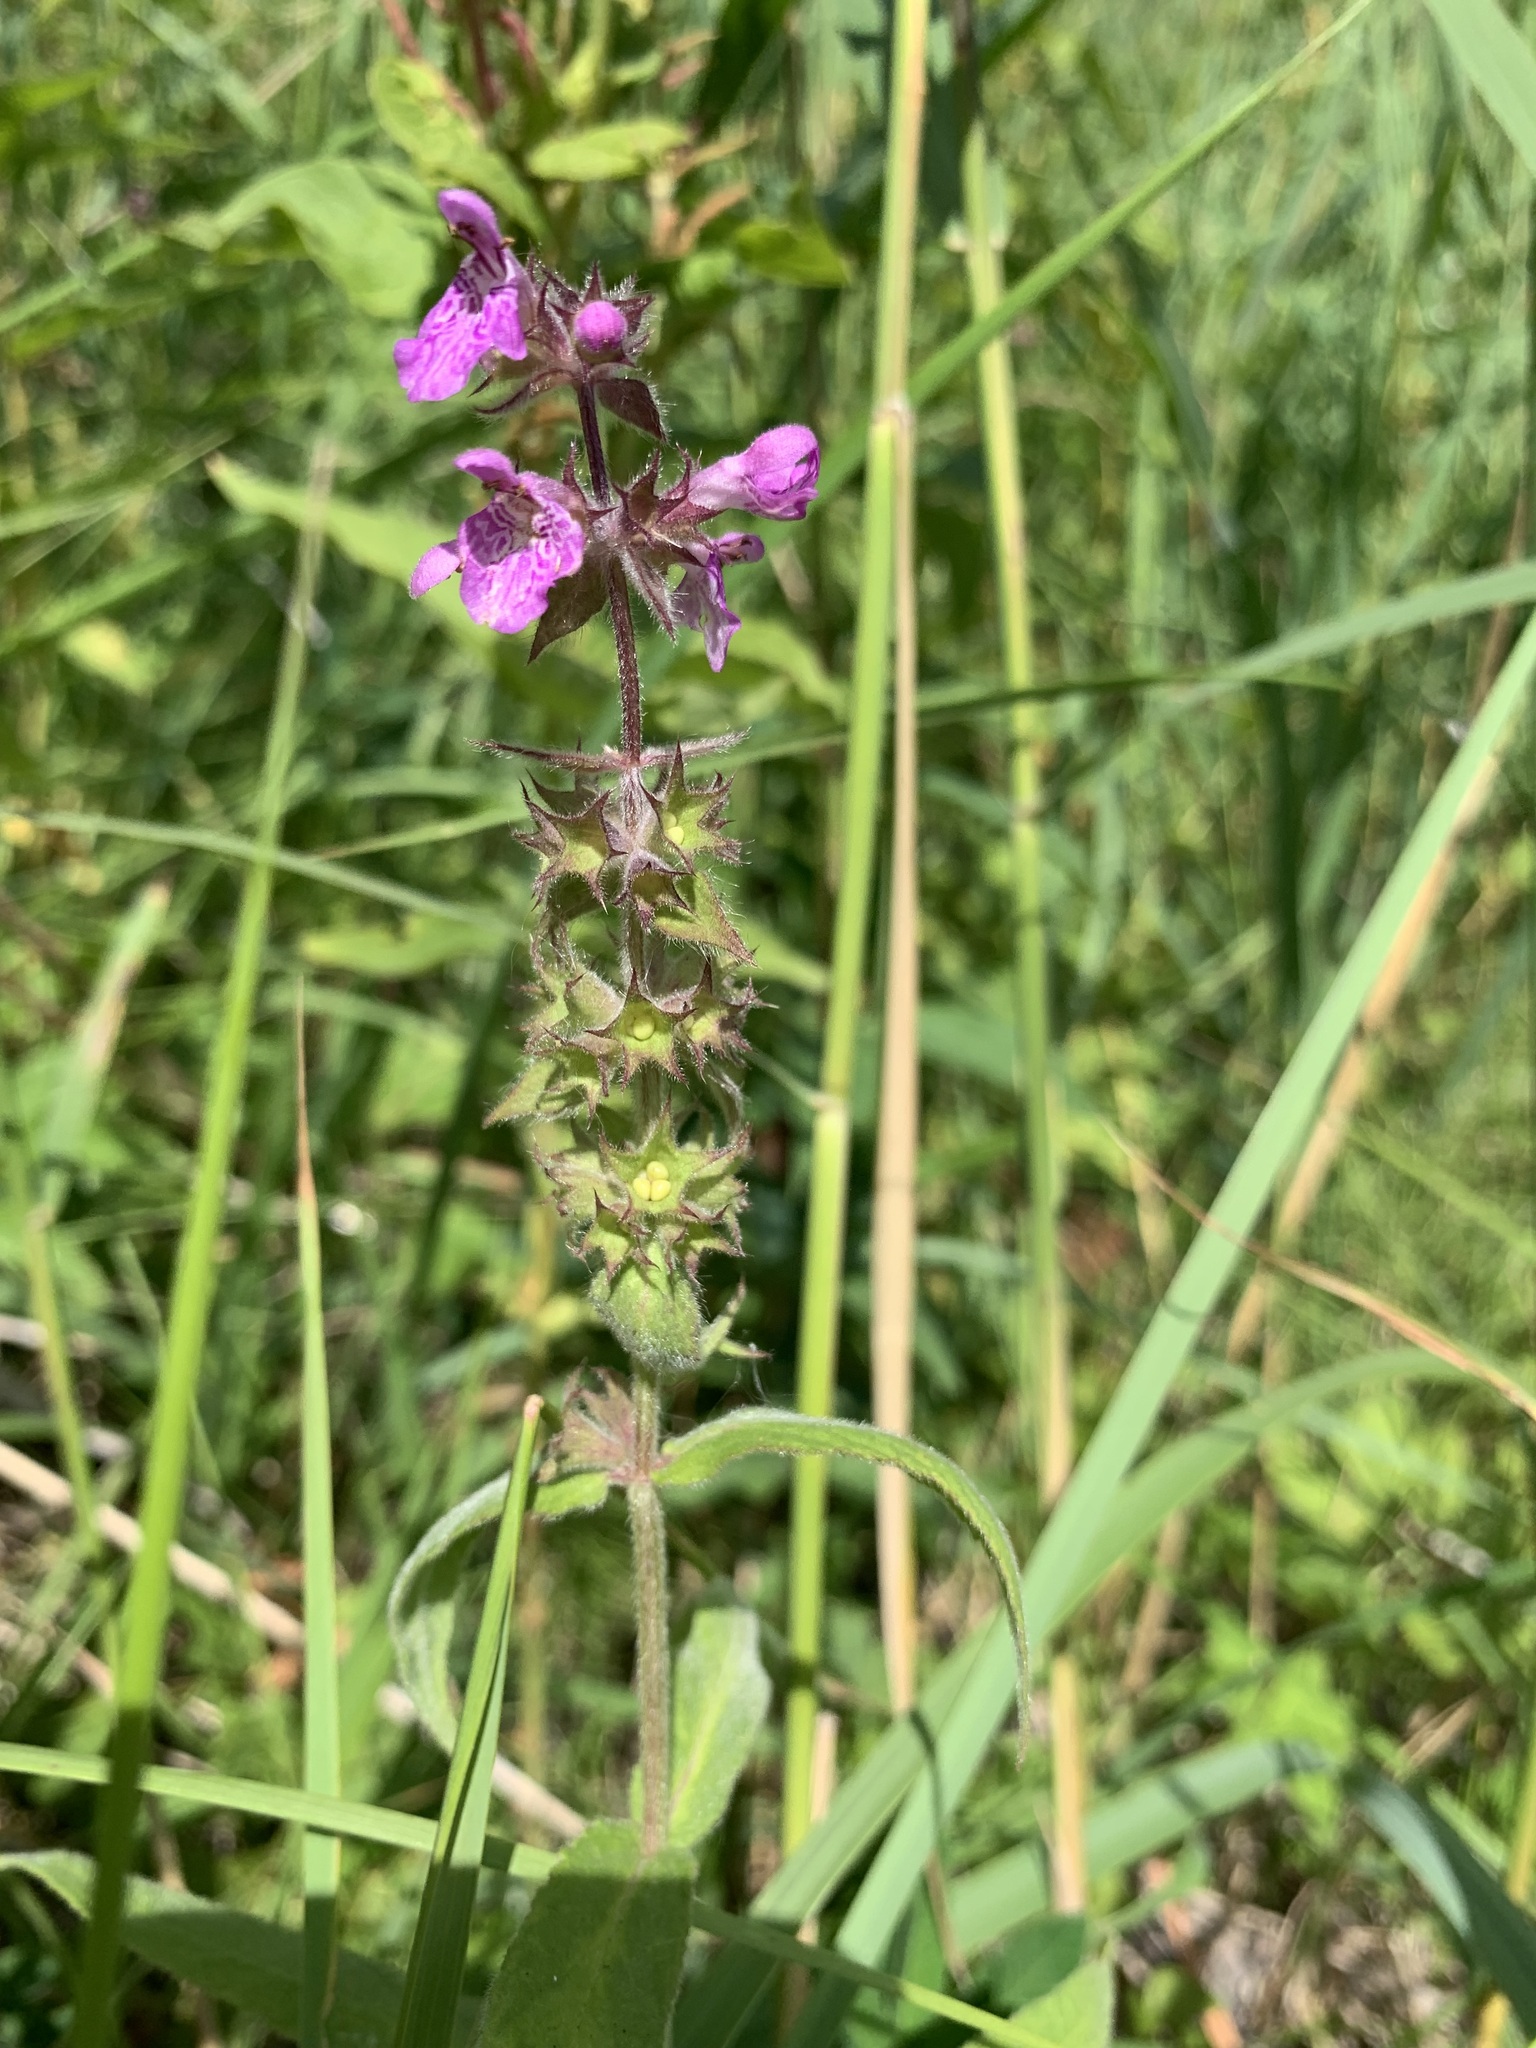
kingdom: Plantae
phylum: Tracheophyta
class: Magnoliopsida
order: Lamiales
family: Lamiaceae
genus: Stachys
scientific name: Stachys palustris
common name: Marsh woundwort
